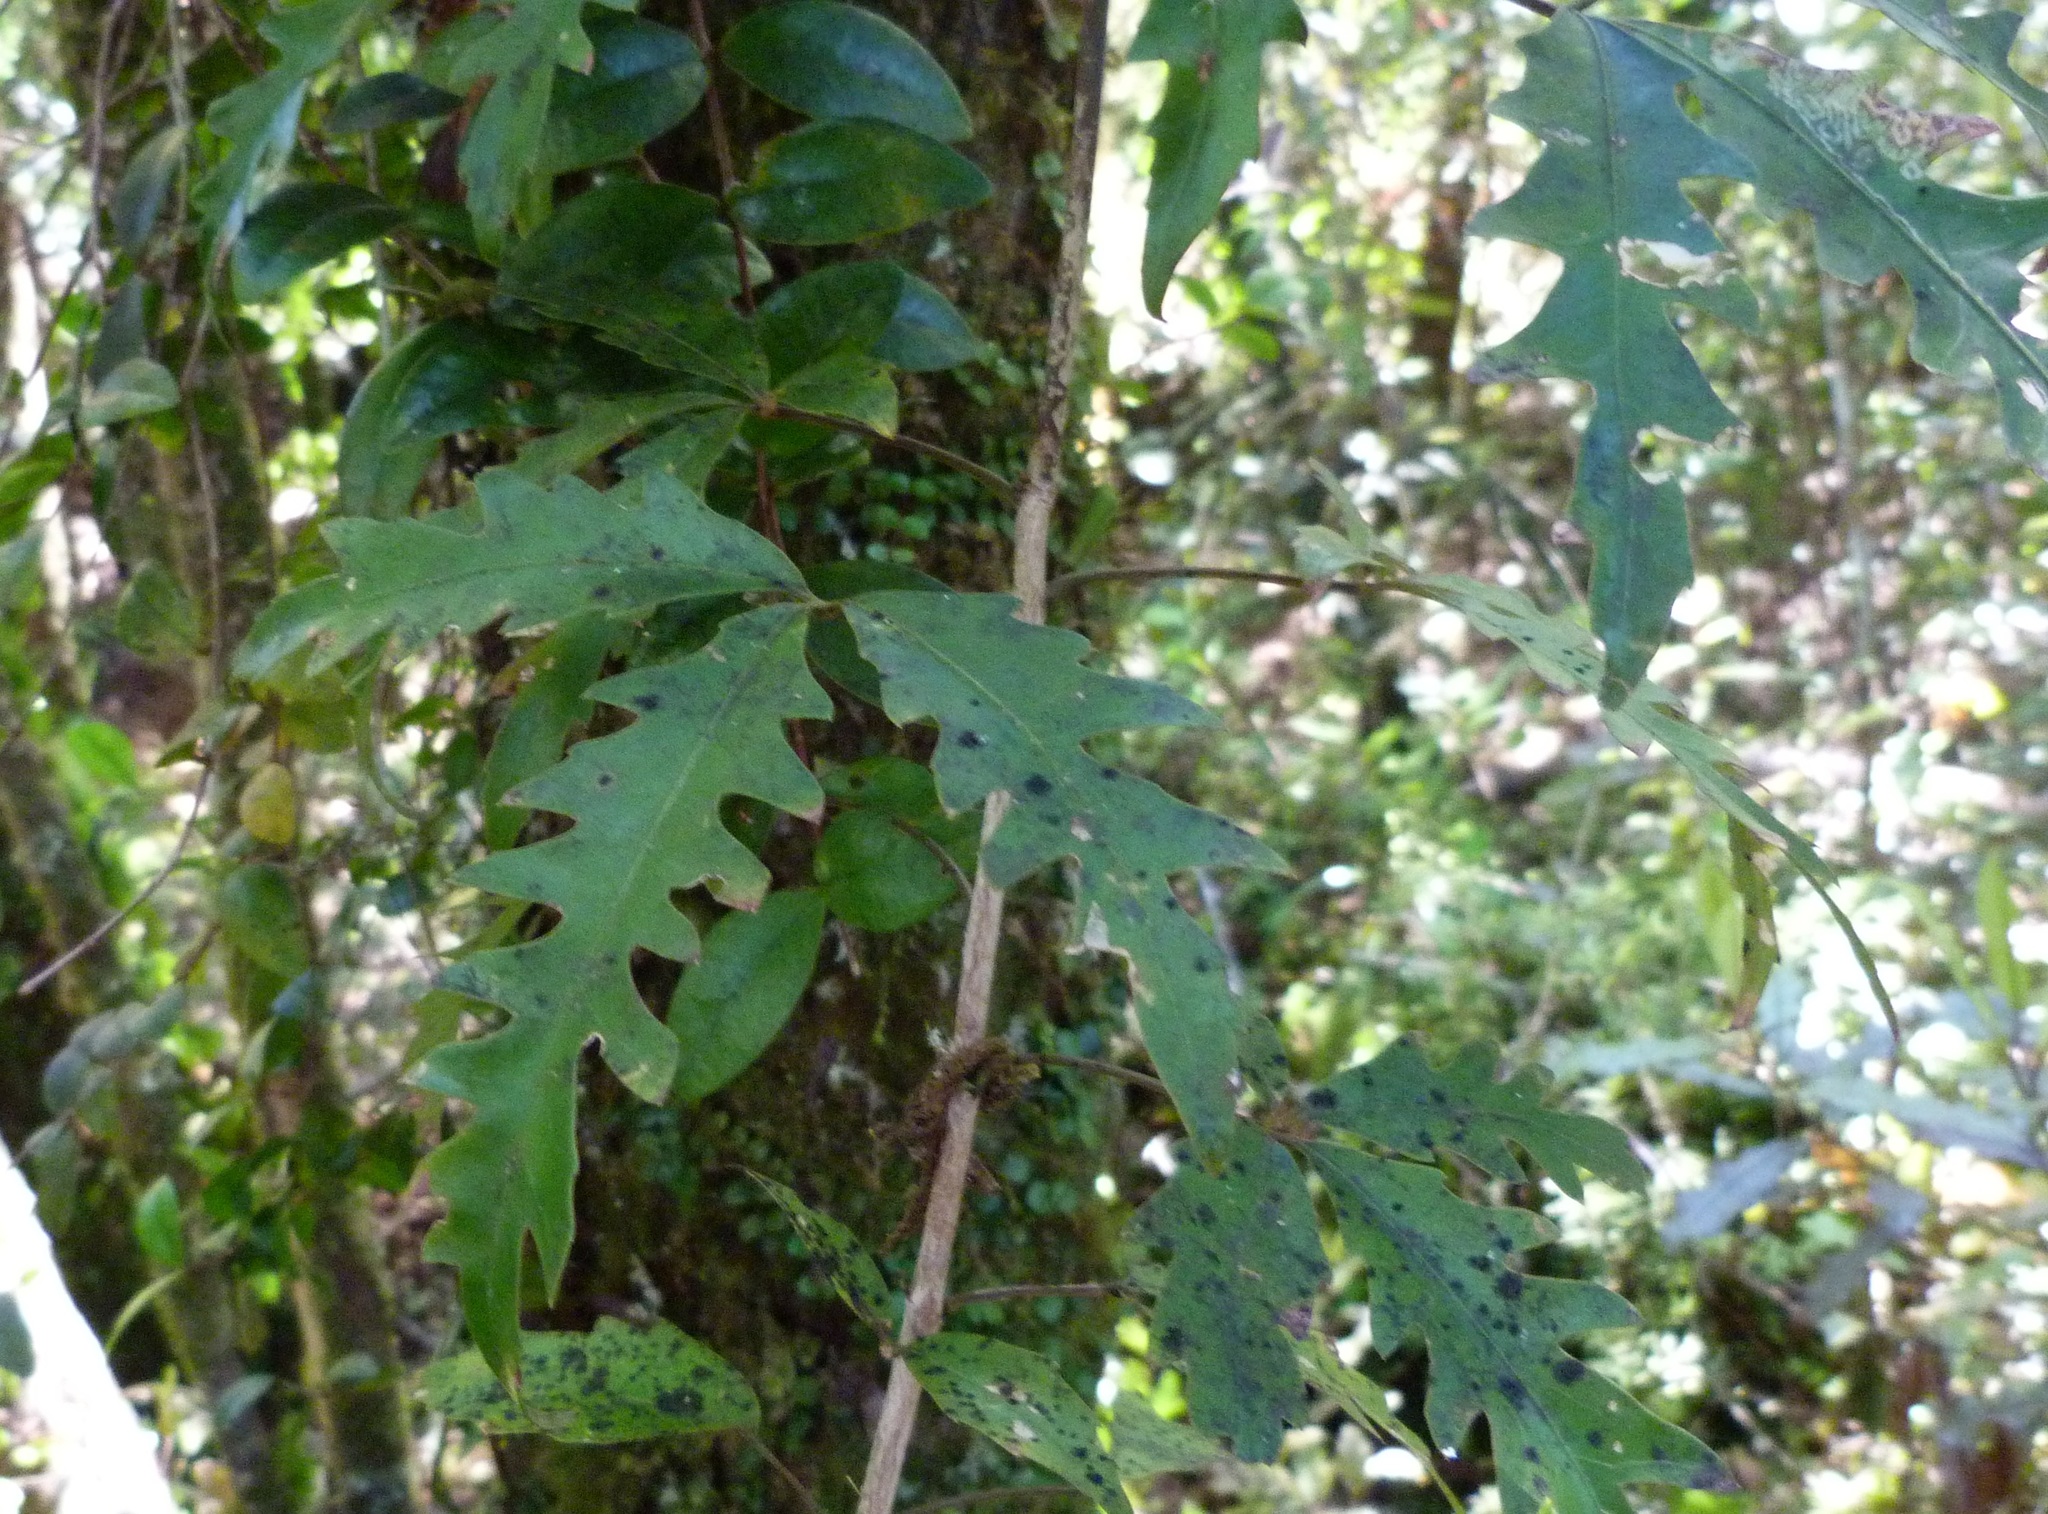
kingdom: Plantae
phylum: Tracheophyta
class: Magnoliopsida
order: Apiales
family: Araliaceae
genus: Raukaua
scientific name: Raukaua edgerleyi
